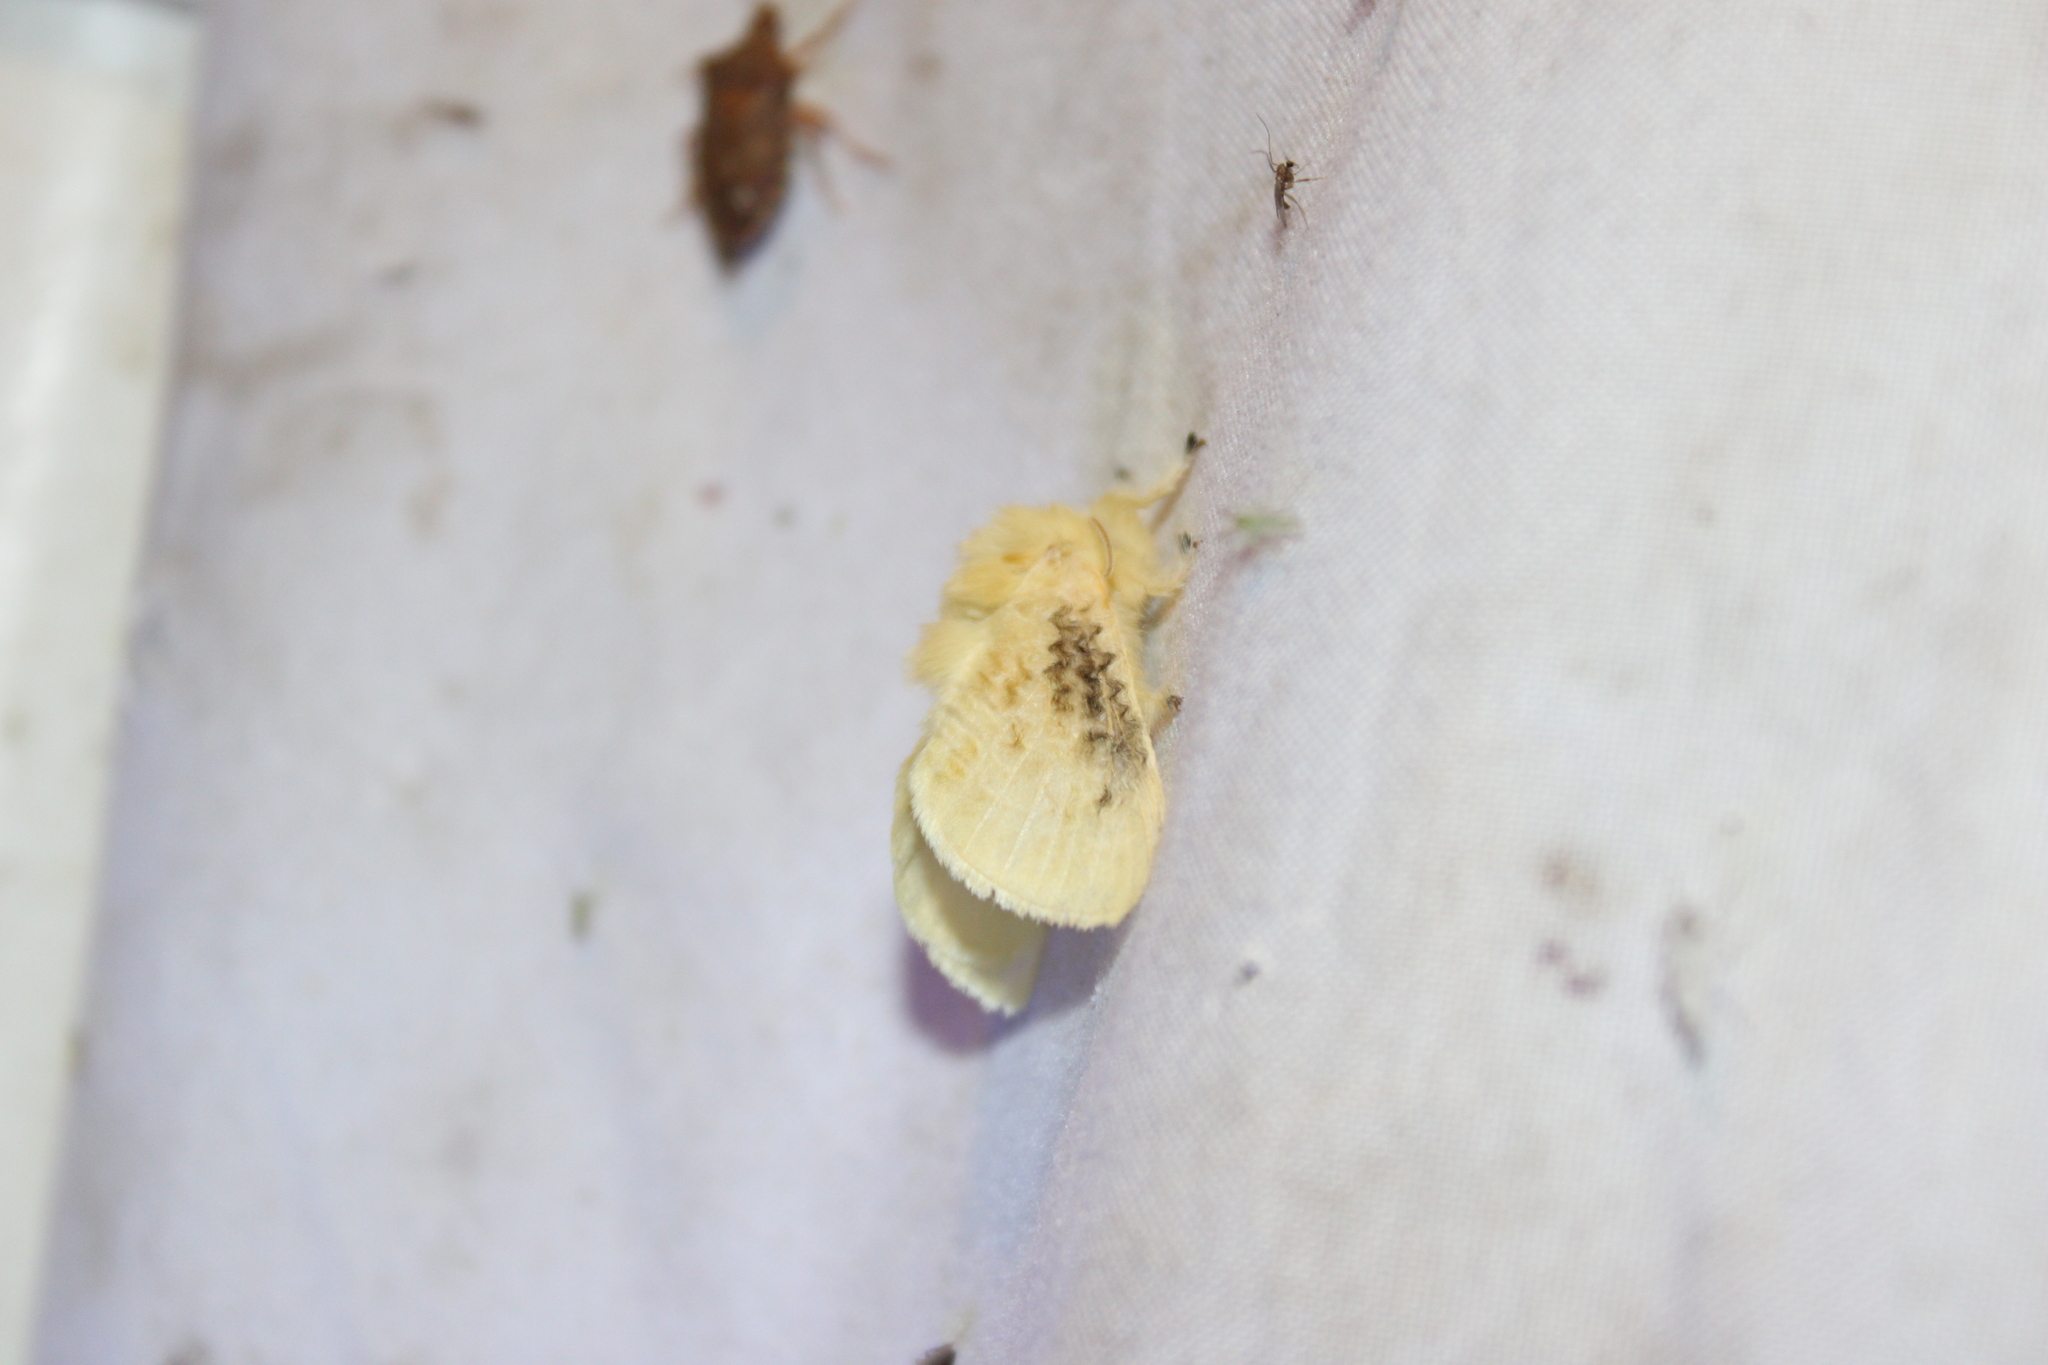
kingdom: Animalia
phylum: Arthropoda
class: Insecta
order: Lepidoptera
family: Megalopygidae
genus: Megalopyge
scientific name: Megalopyge crispata
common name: Black-waved flannel moth
